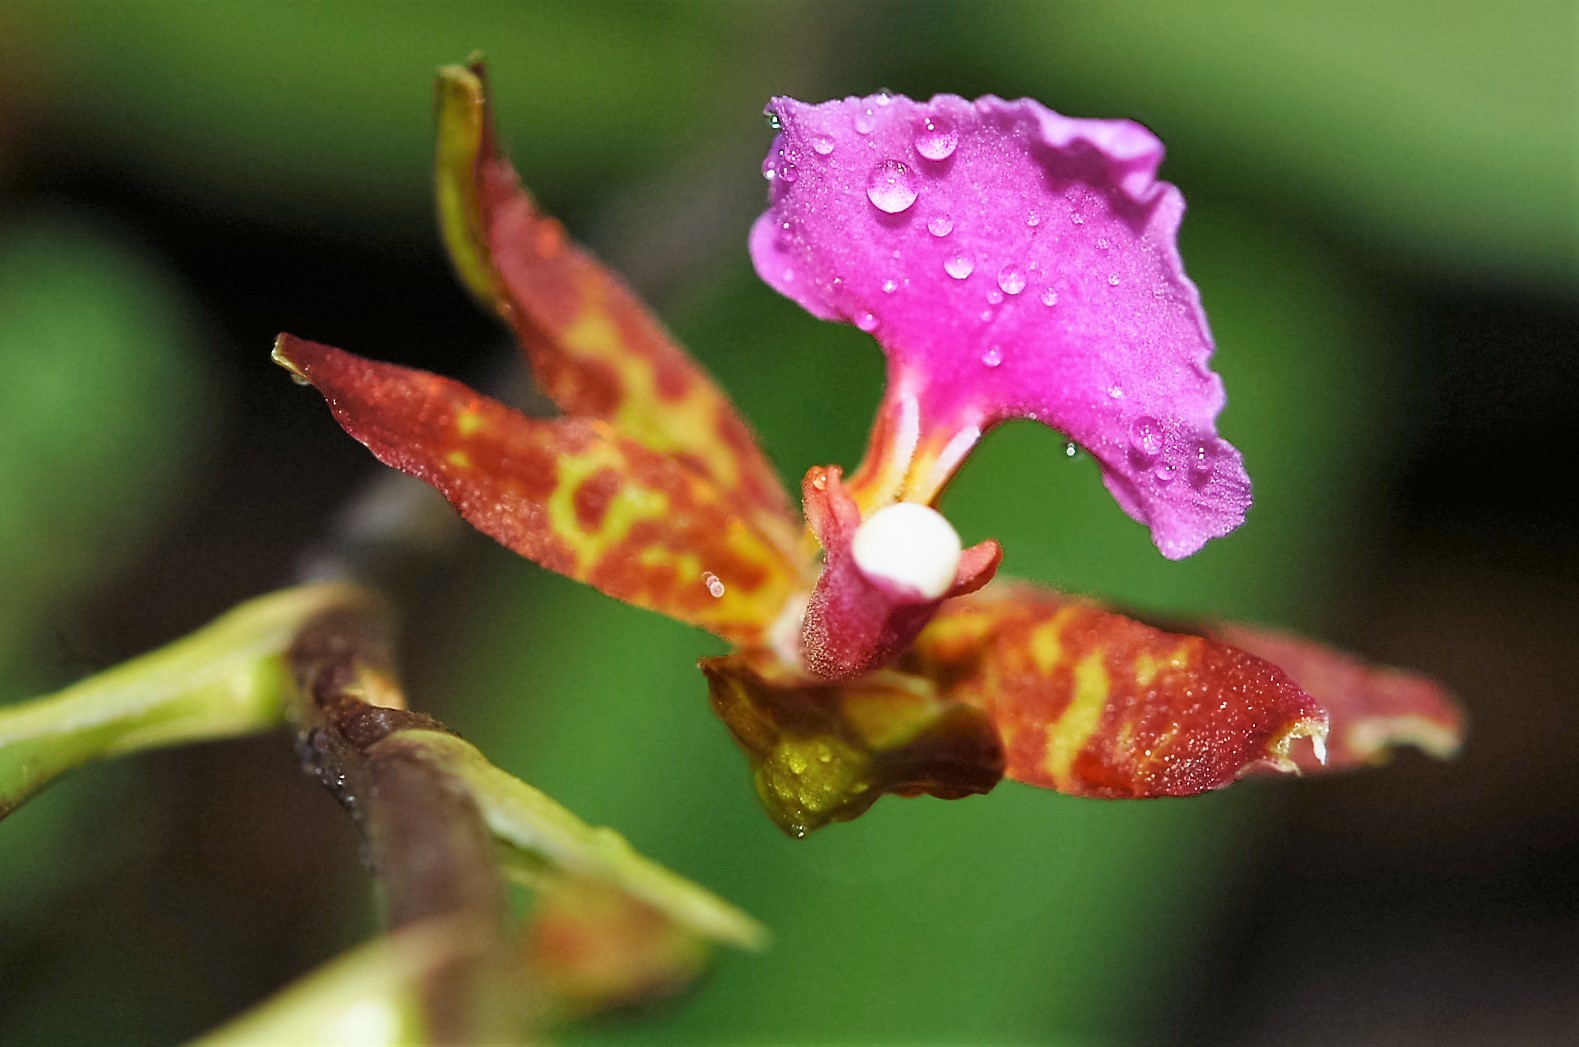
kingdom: Plantae
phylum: Tracheophyta
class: Liliopsida
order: Asparagales
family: Orchidaceae
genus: Rhynchostele
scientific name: Rhynchostele bictoniensis
